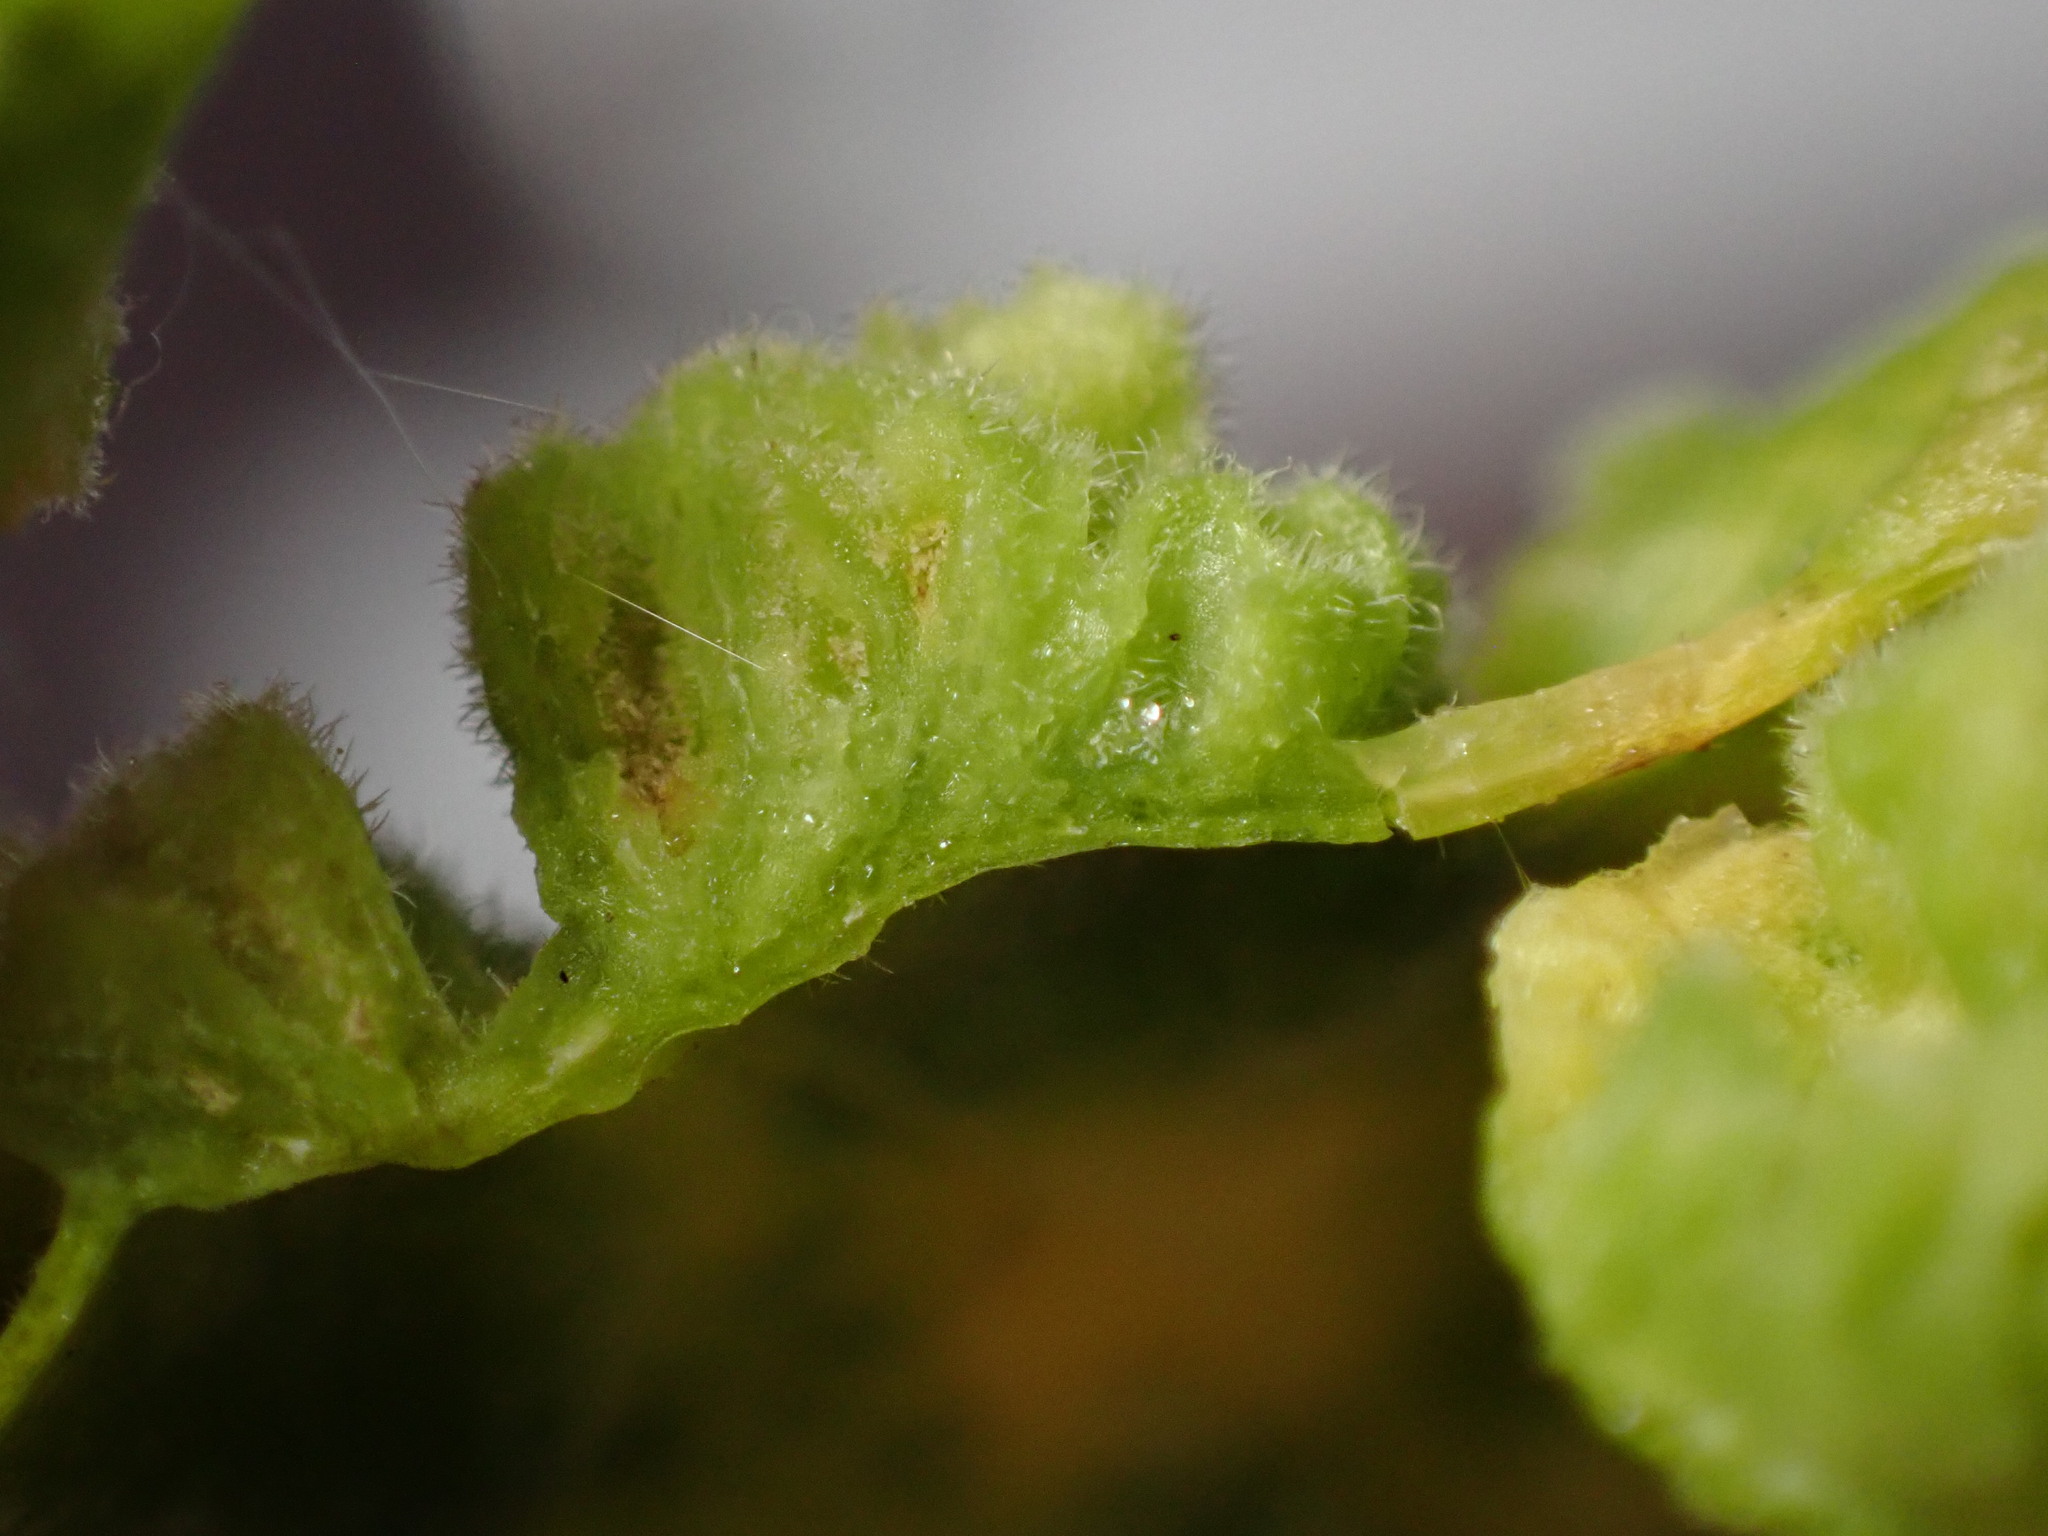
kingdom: Animalia
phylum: Arthropoda
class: Arachnida
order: Trombidiformes
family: Eriophyidae
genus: Aceria
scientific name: Aceria hibisci
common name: Mite
